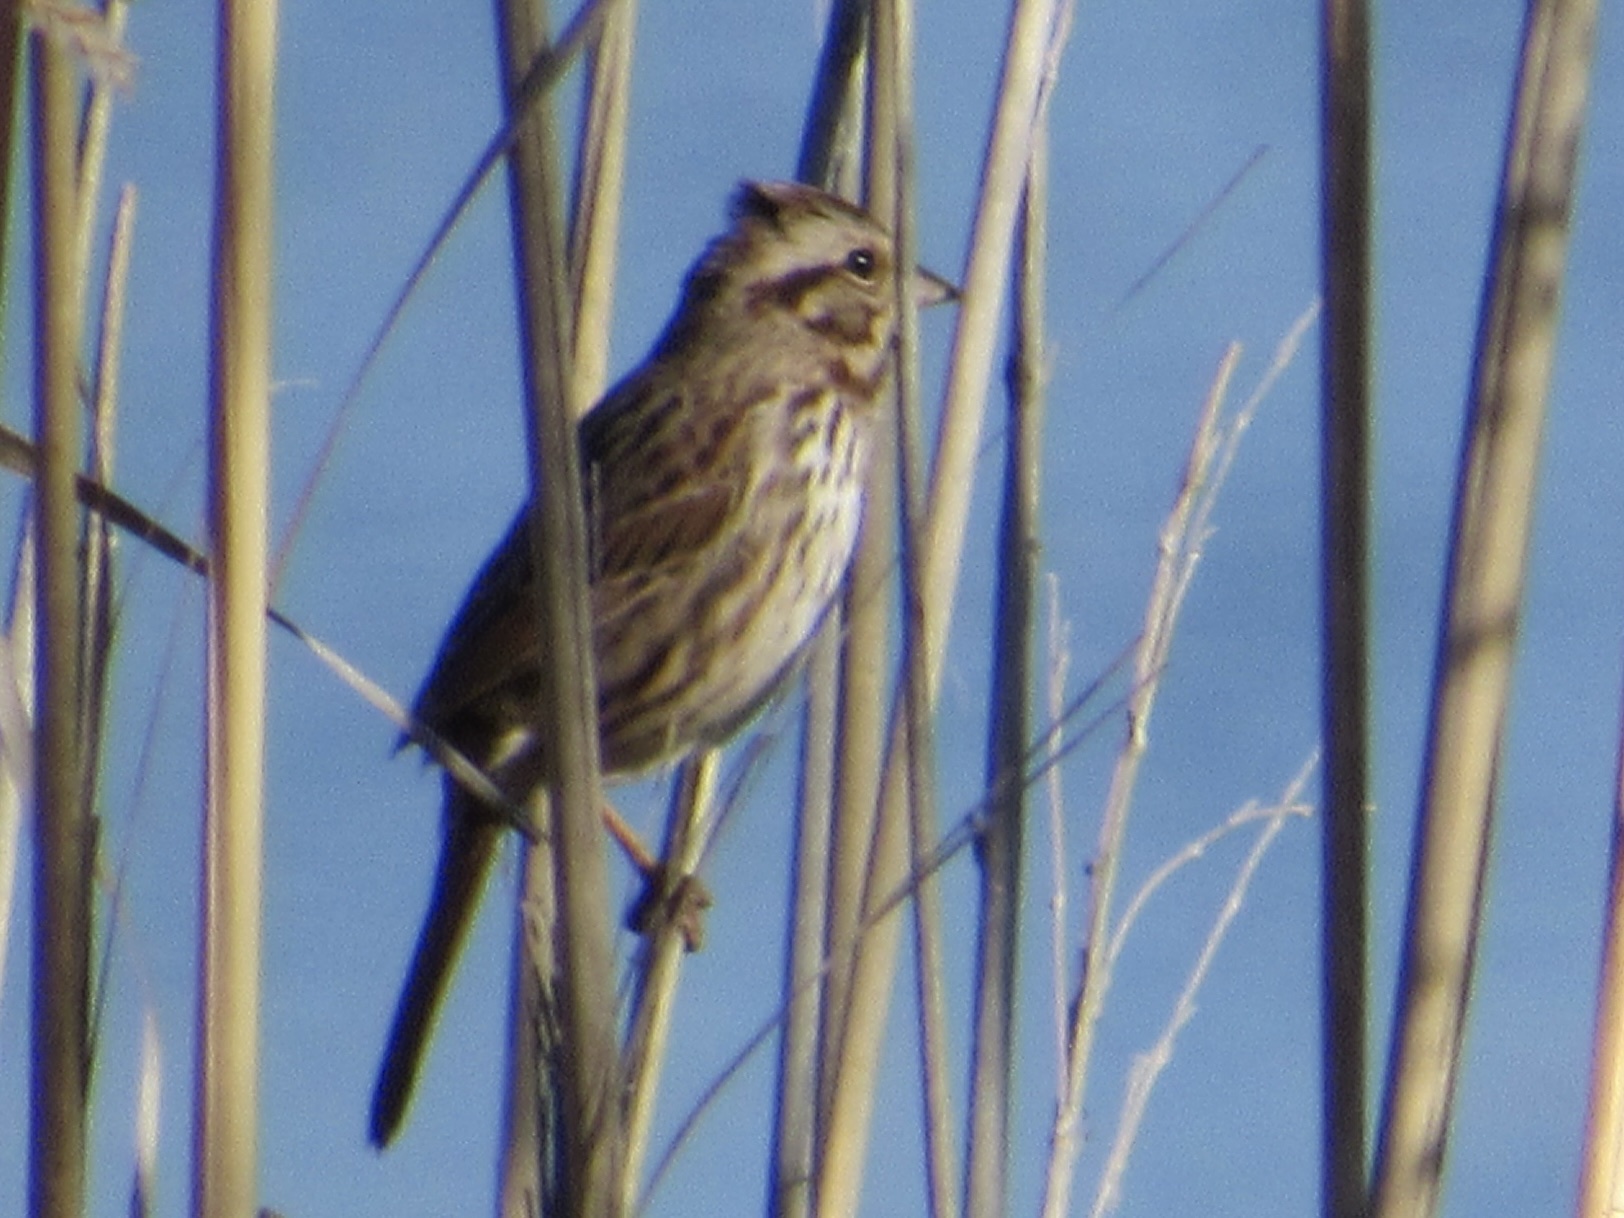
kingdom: Animalia
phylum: Chordata
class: Aves
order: Passeriformes
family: Passerellidae
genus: Melospiza
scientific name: Melospiza melodia
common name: Song sparrow
